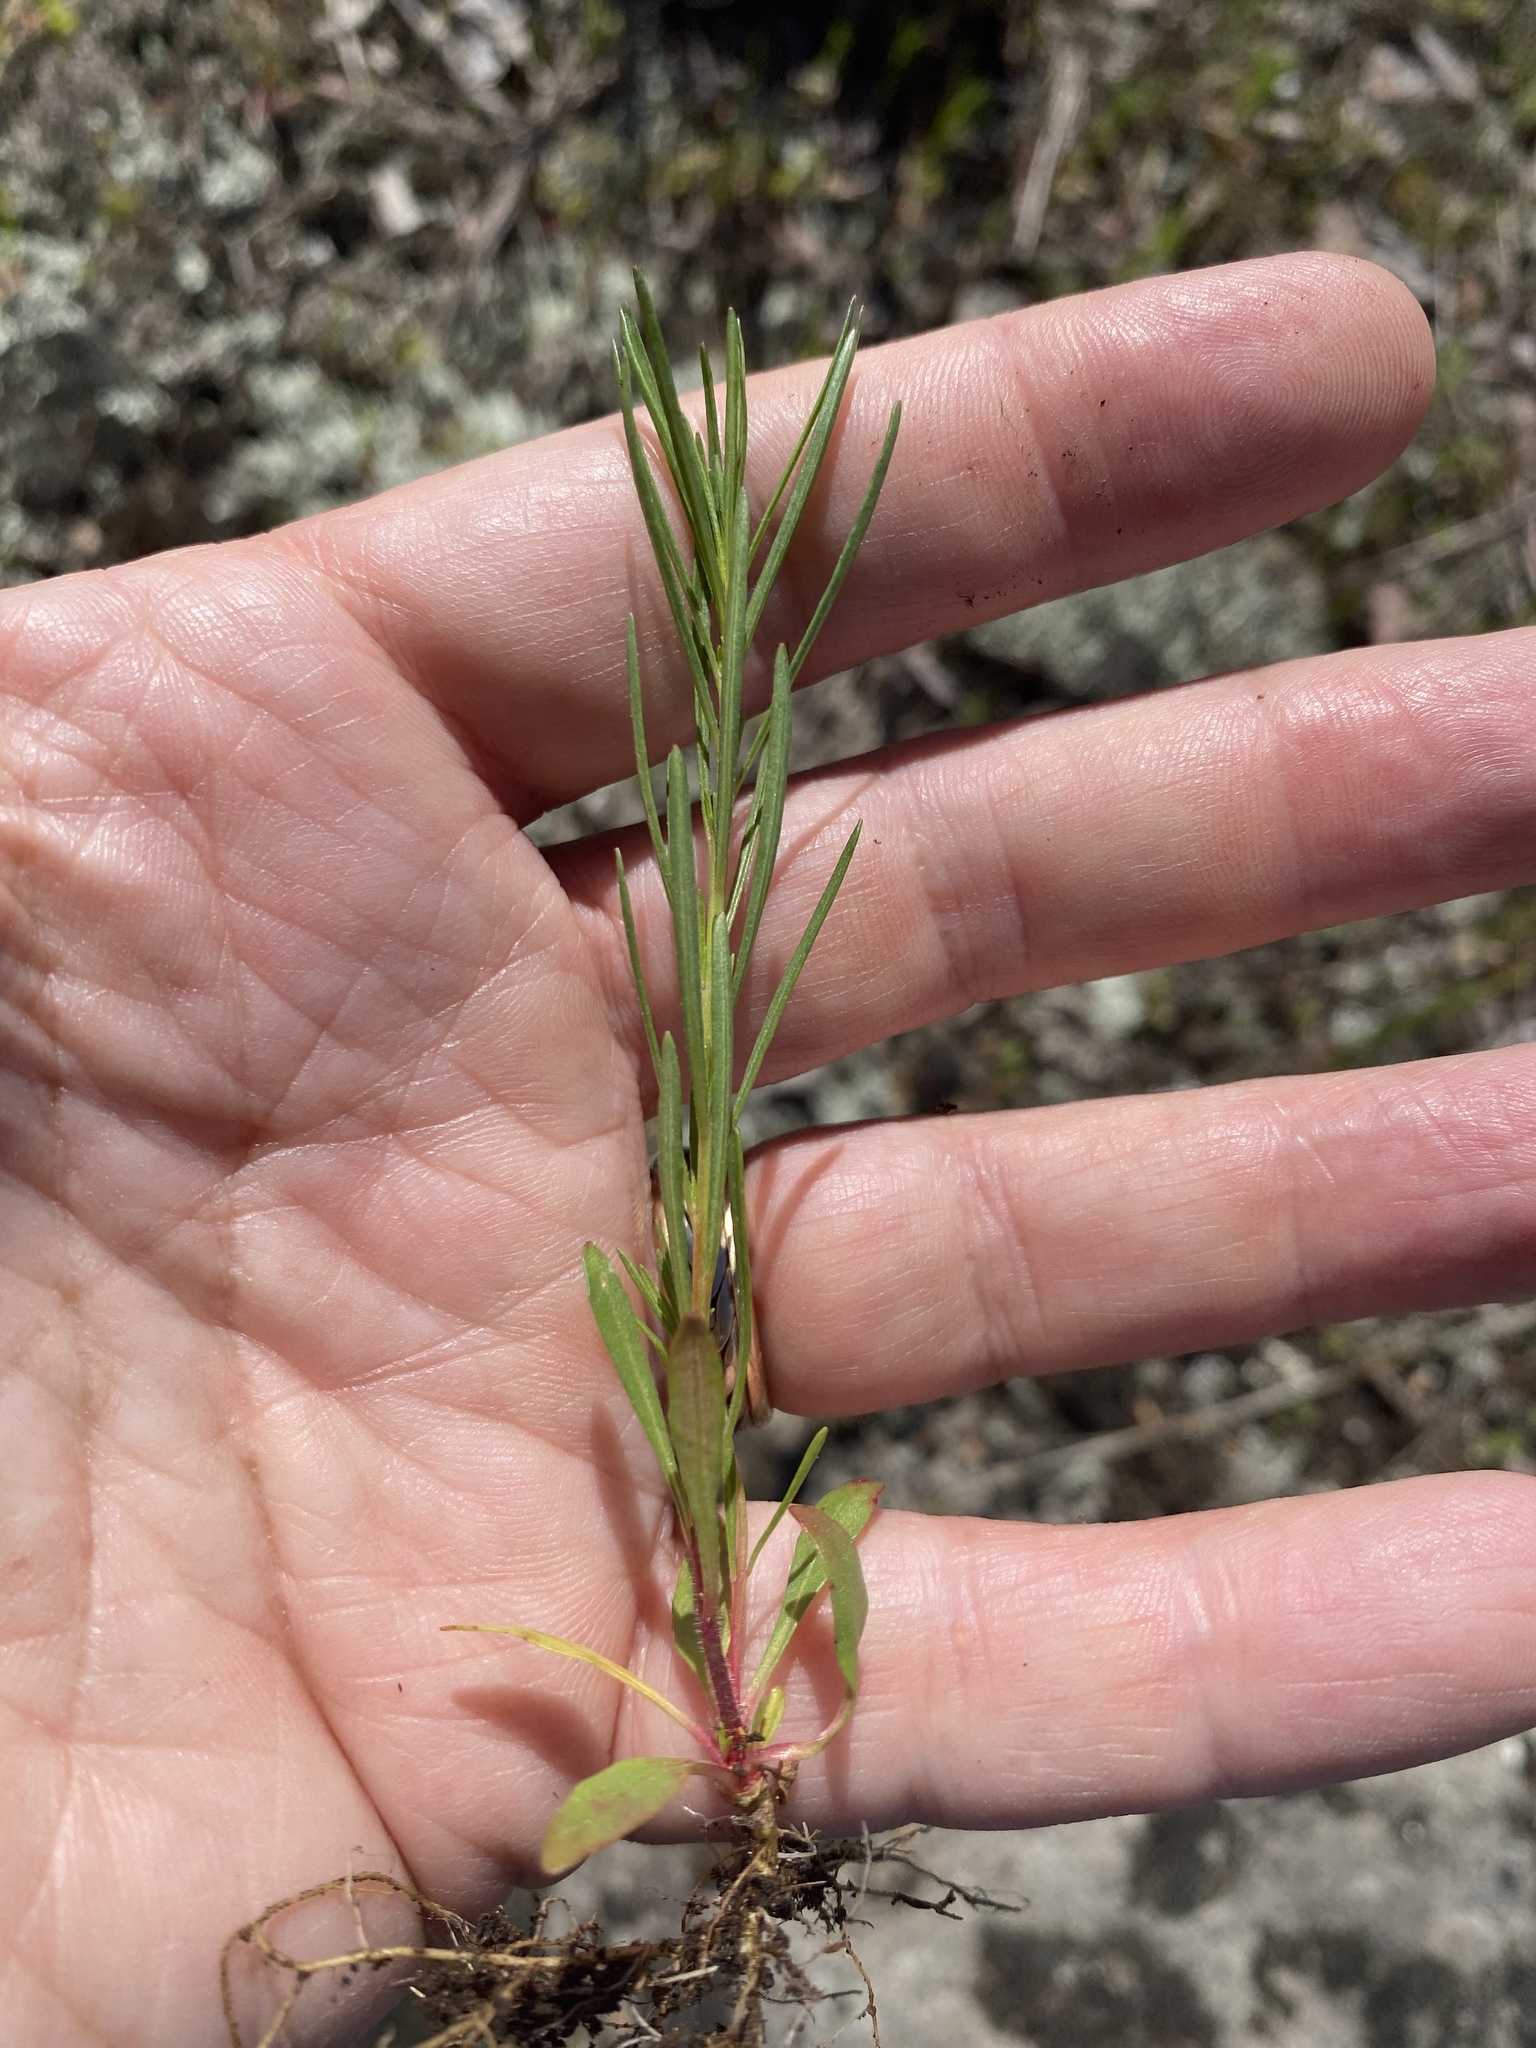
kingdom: Plantae
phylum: Tracheophyta
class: Magnoliopsida
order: Myrtales
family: Onagraceae
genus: Oenothera
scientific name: Oenothera linifolia
